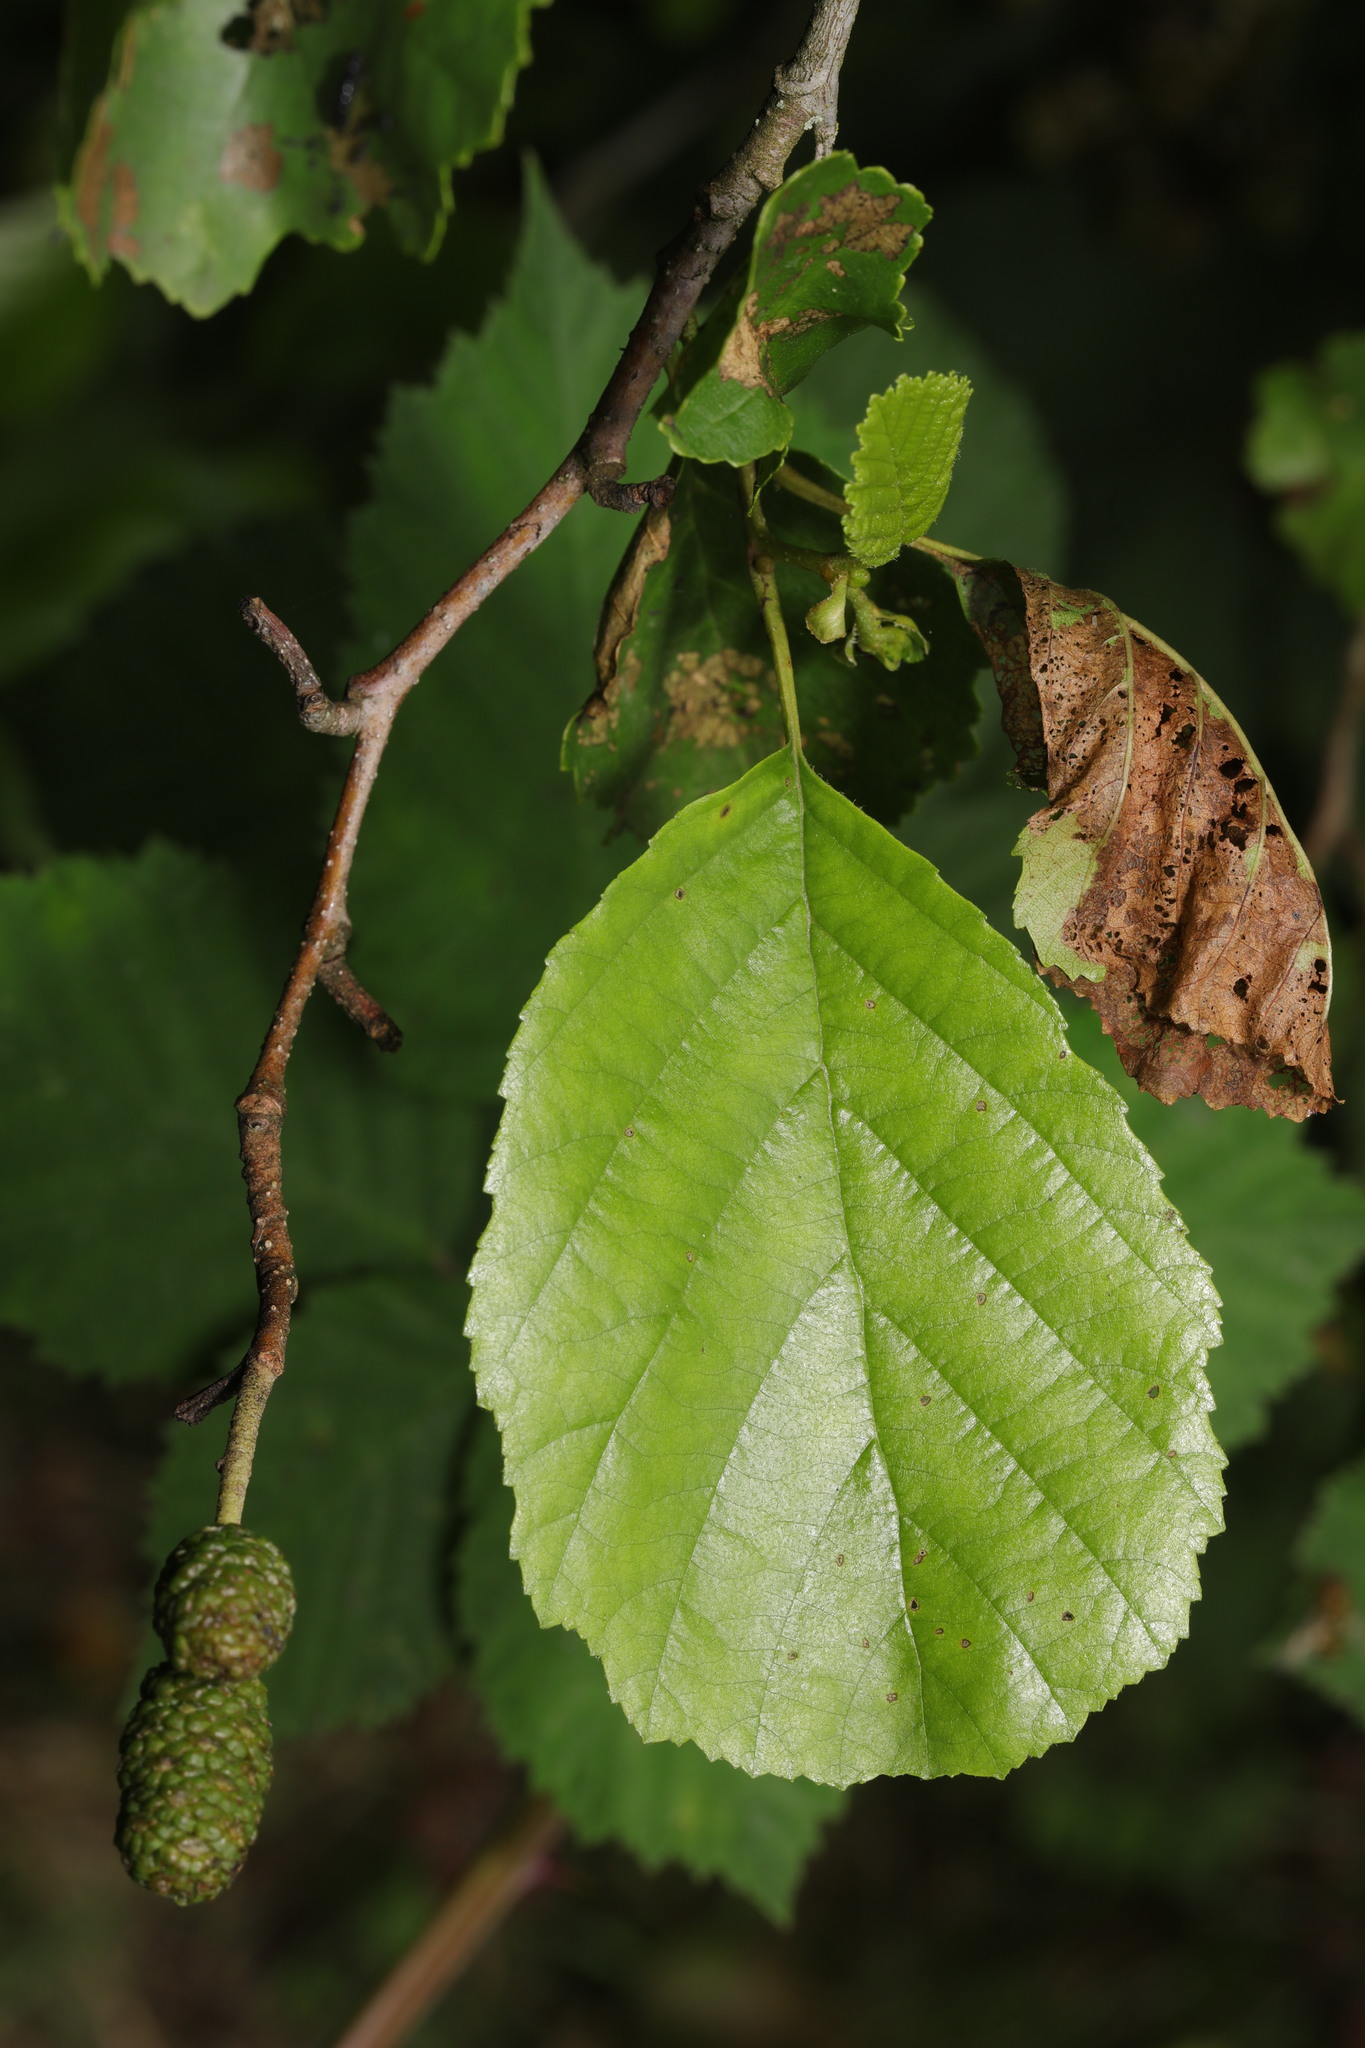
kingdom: Plantae
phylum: Tracheophyta
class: Magnoliopsida
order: Fagales
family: Betulaceae
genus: Alnus
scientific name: Alnus glutinosa
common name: Black alder
